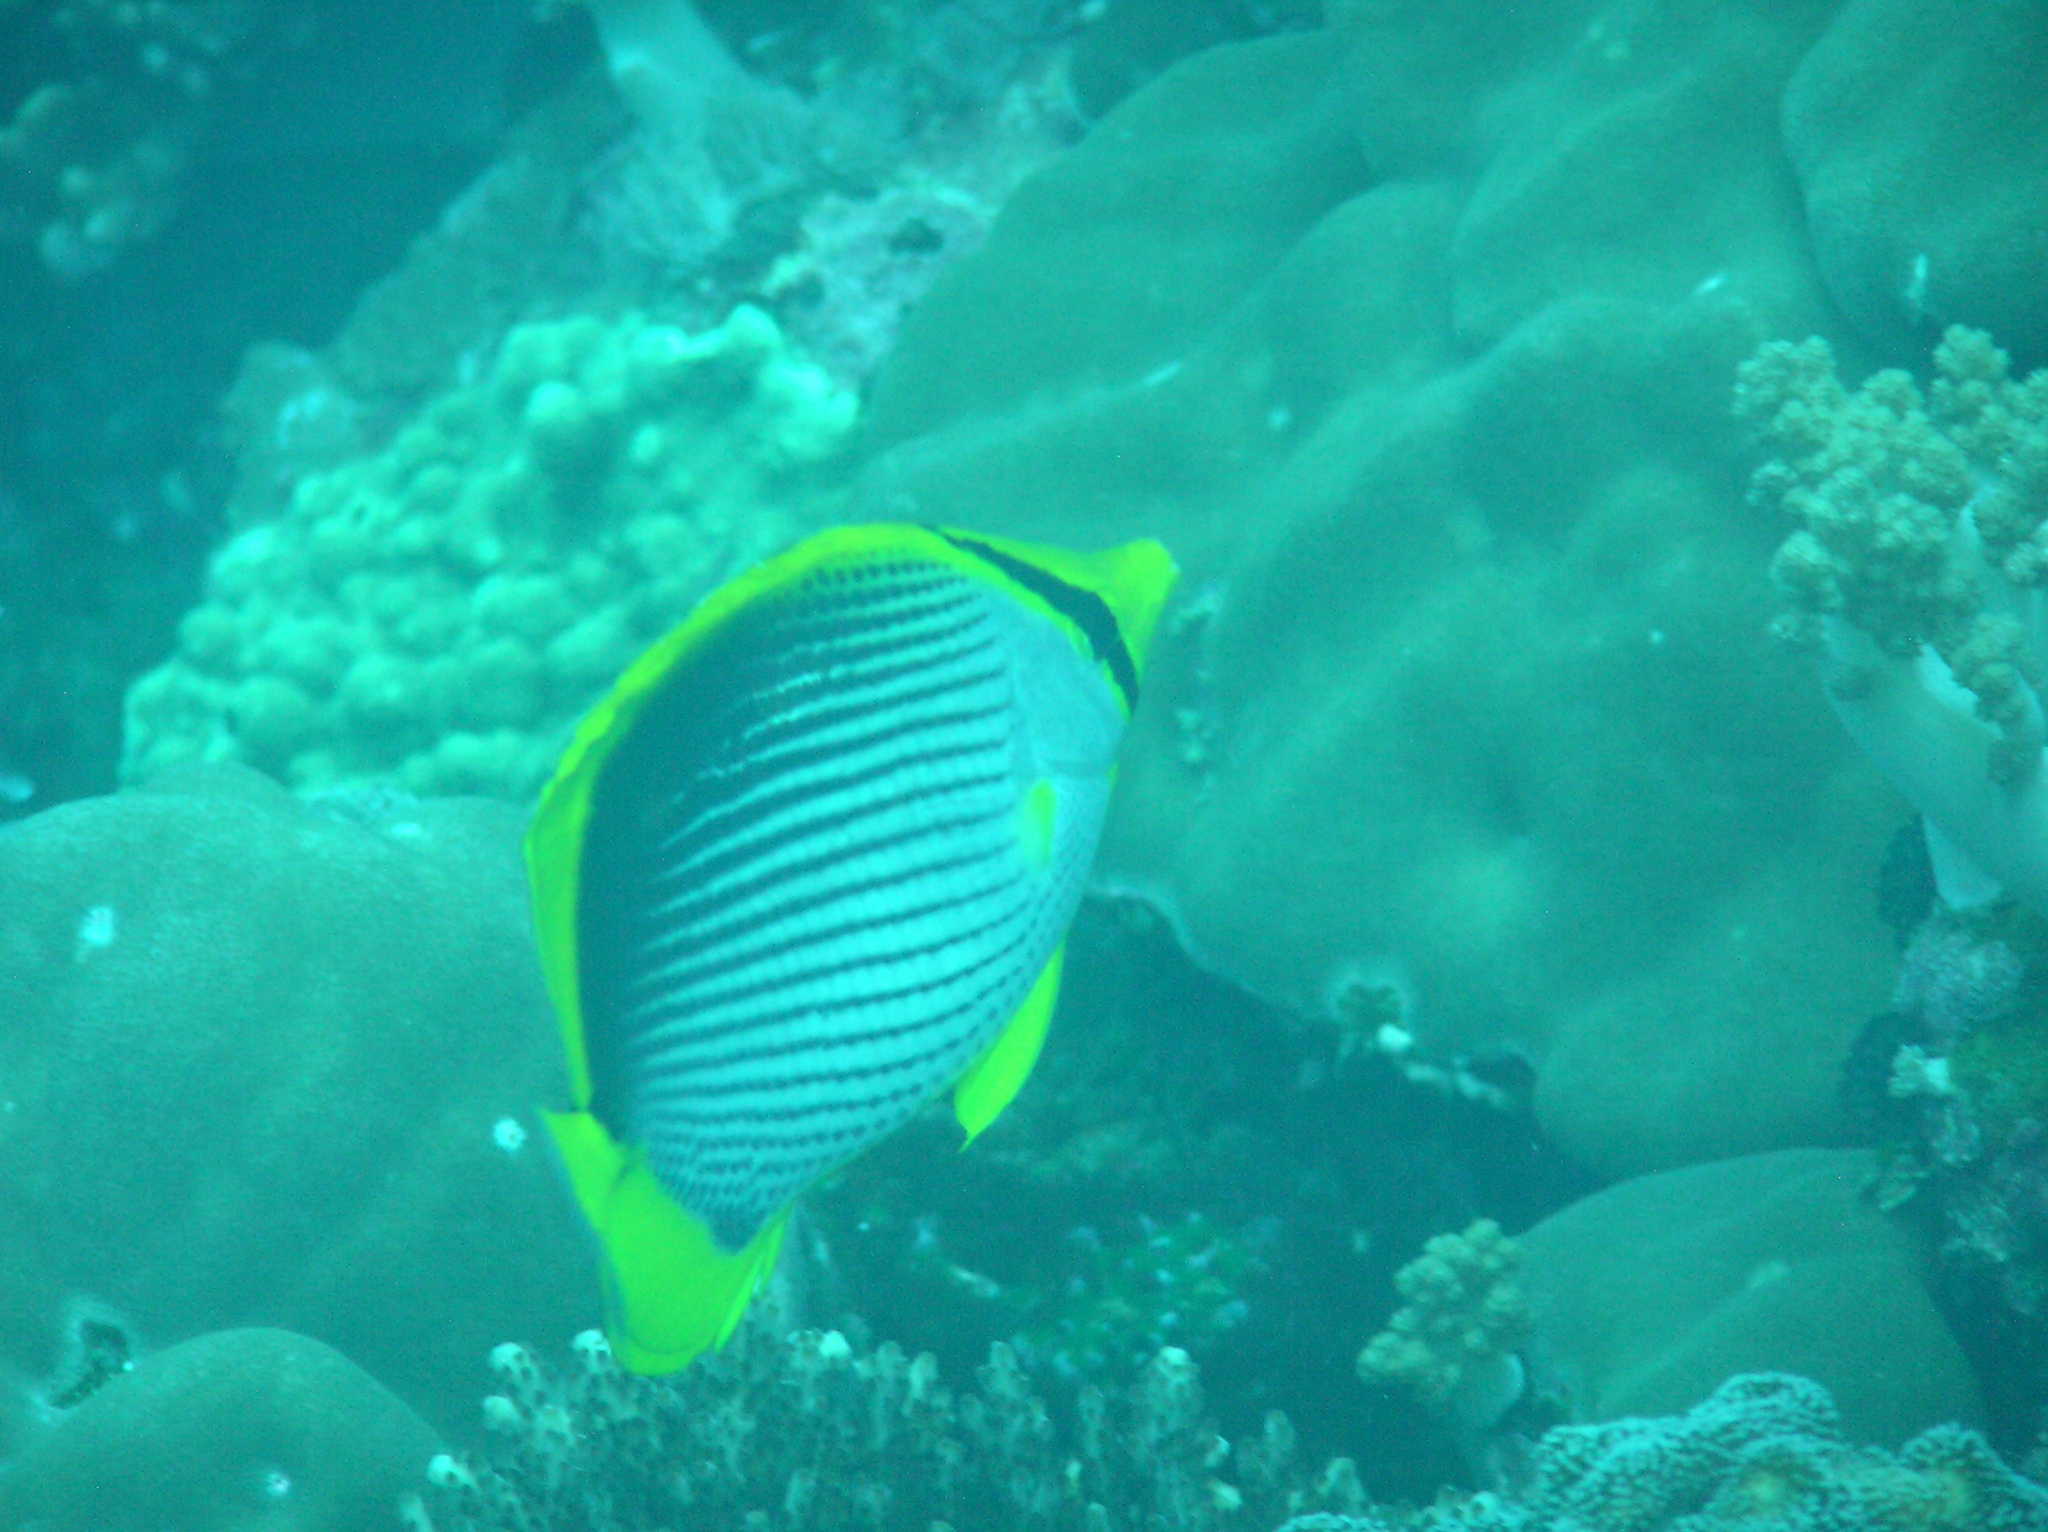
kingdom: Animalia
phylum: Chordata
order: Perciformes
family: Chaetodontidae
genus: Chaetodon
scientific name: Chaetodon melannotus
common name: Blackback butterflyfish
